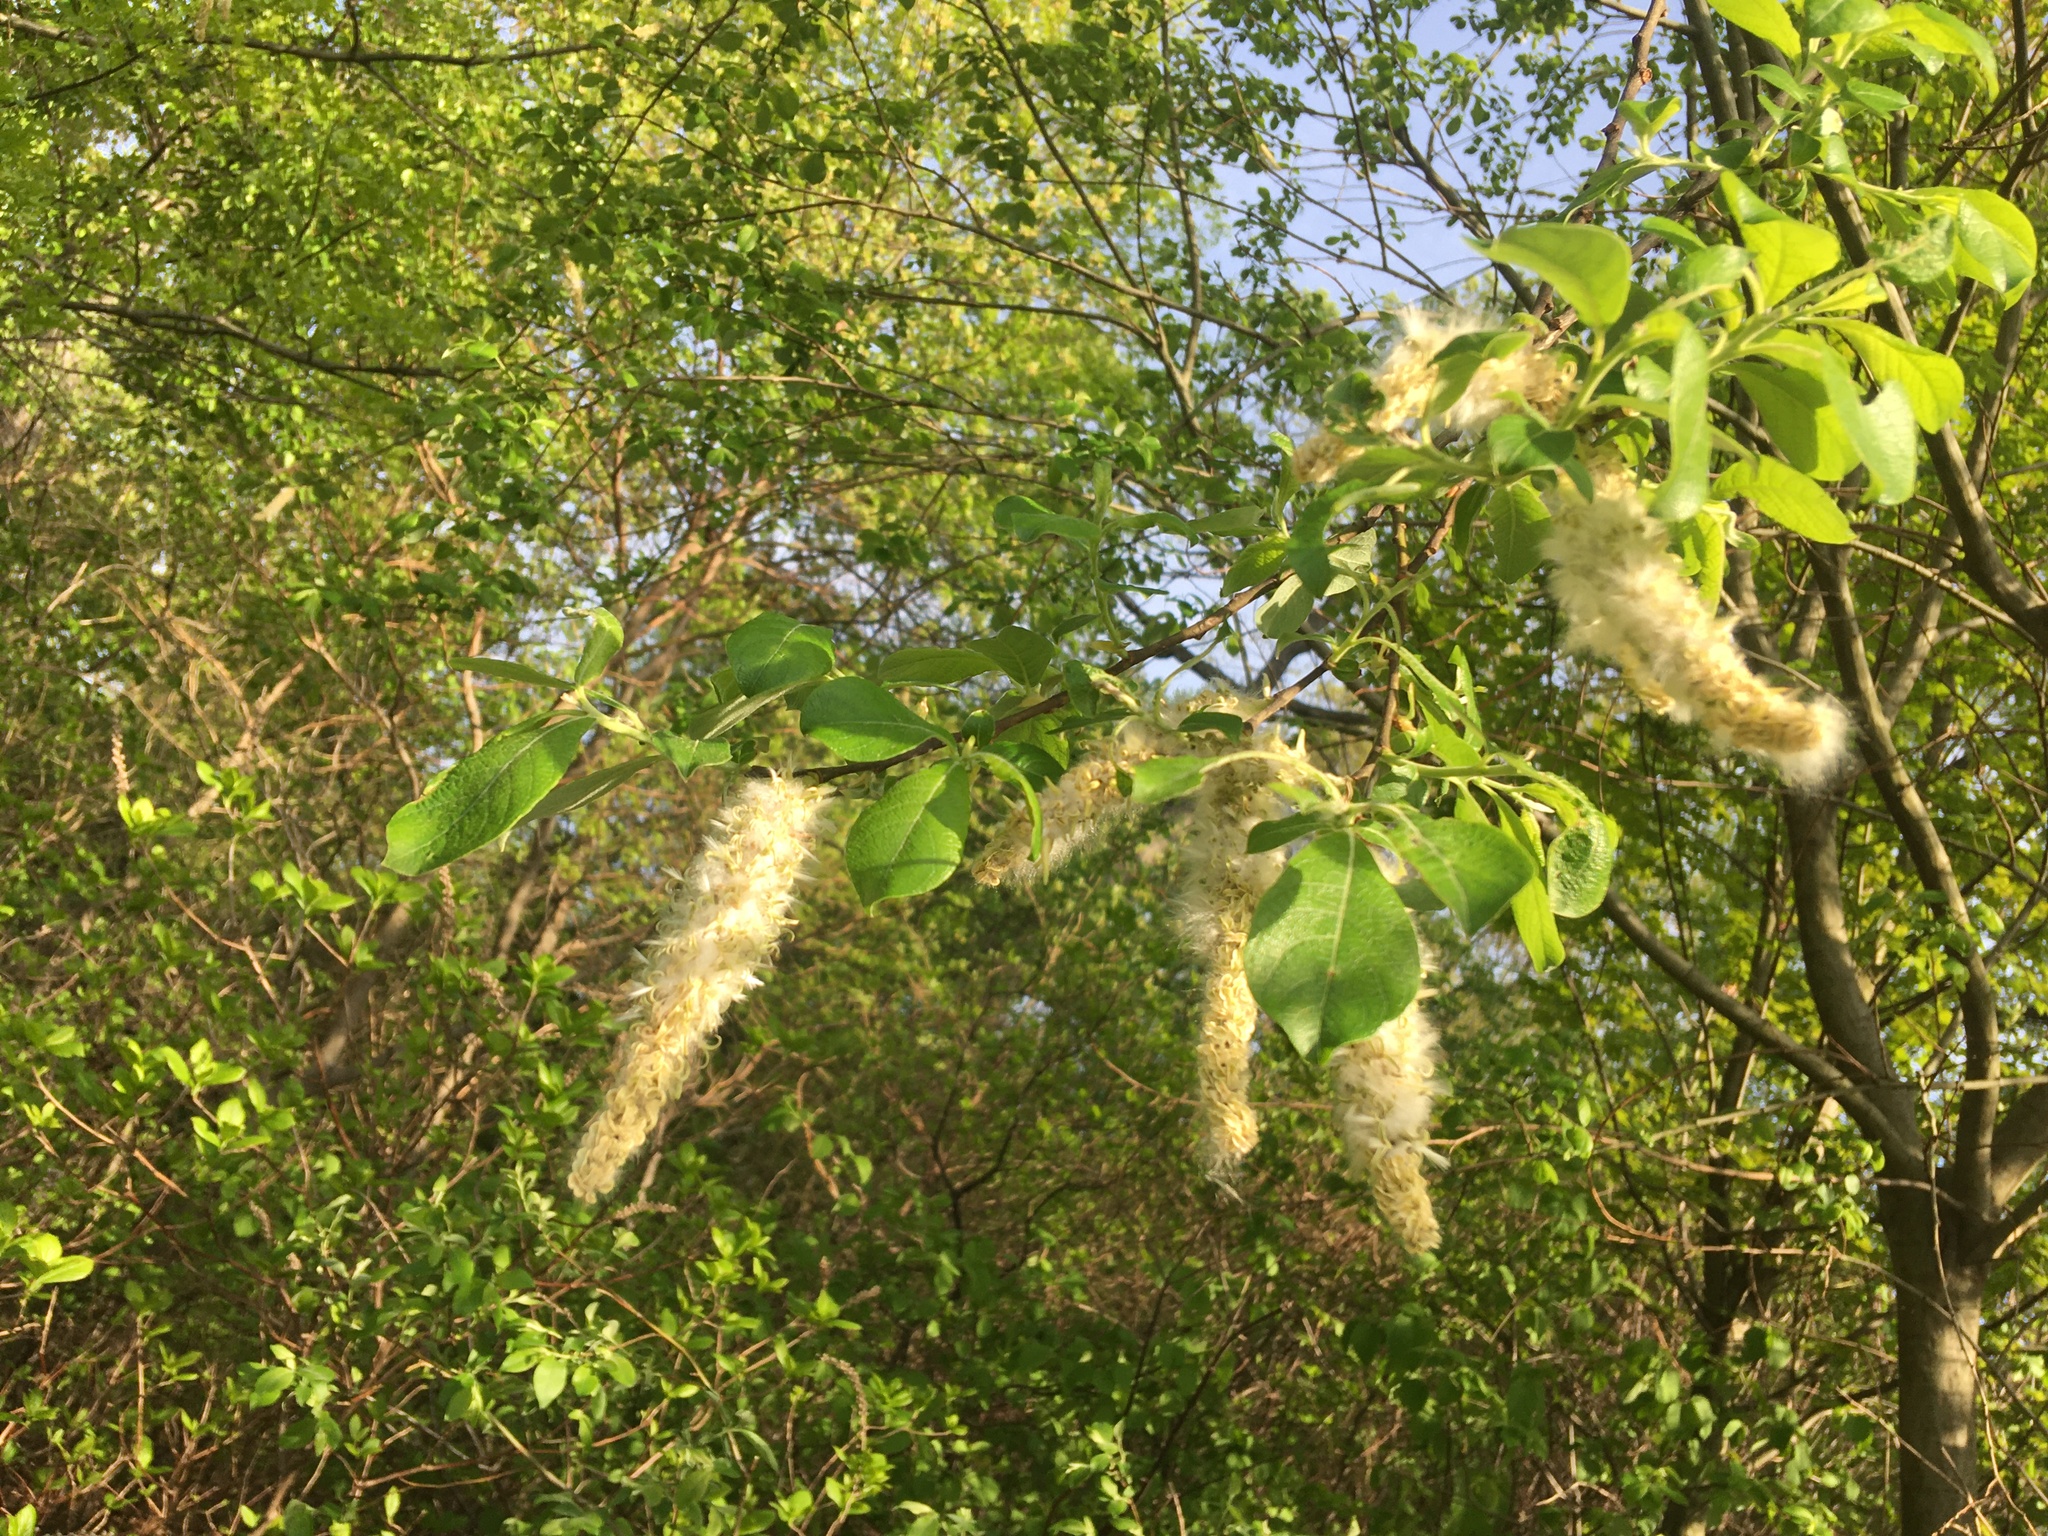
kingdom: Plantae
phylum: Tracheophyta
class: Magnoliopsida
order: Malpighiales
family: Salicaceae
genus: Salix
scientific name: Salix atrocinerea
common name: Rusty willow
